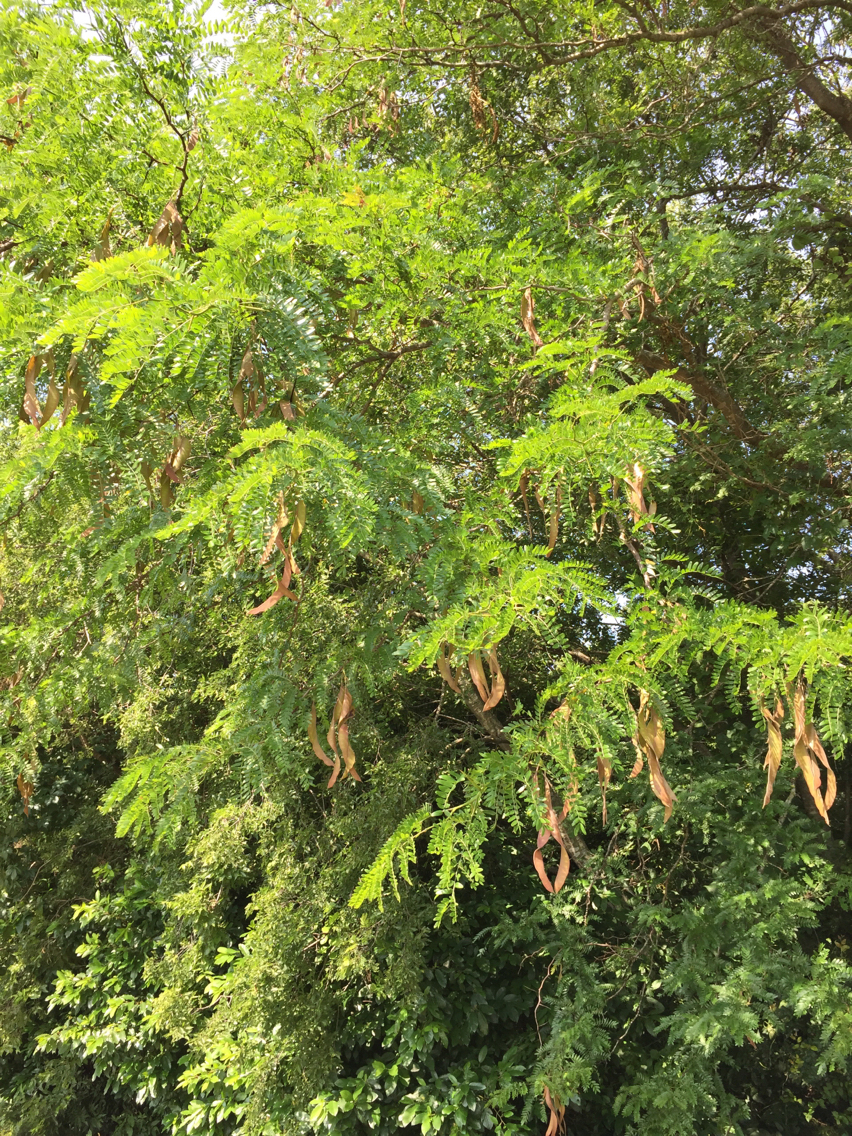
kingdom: Plantae
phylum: Tracheophyta
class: Magnoliopsida
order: Fabales
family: Fabaceae
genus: Gleditsia
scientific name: Gleditsia triacanthos
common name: Common honeylocust
